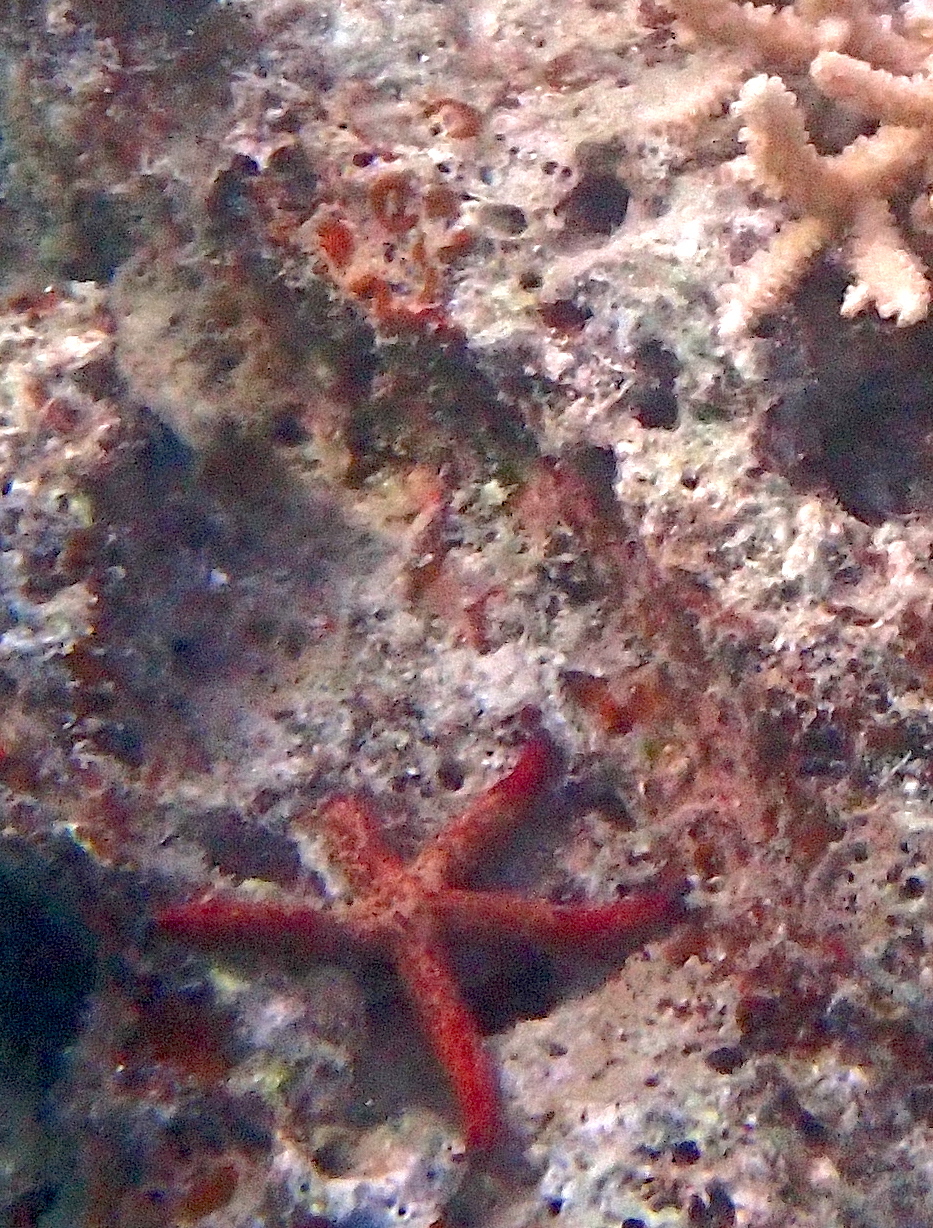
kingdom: Animalia
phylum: Echinodermata
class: Asteroidea
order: Valvatida
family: Ophidiasteridae
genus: Linckia
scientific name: Linckia multifora
